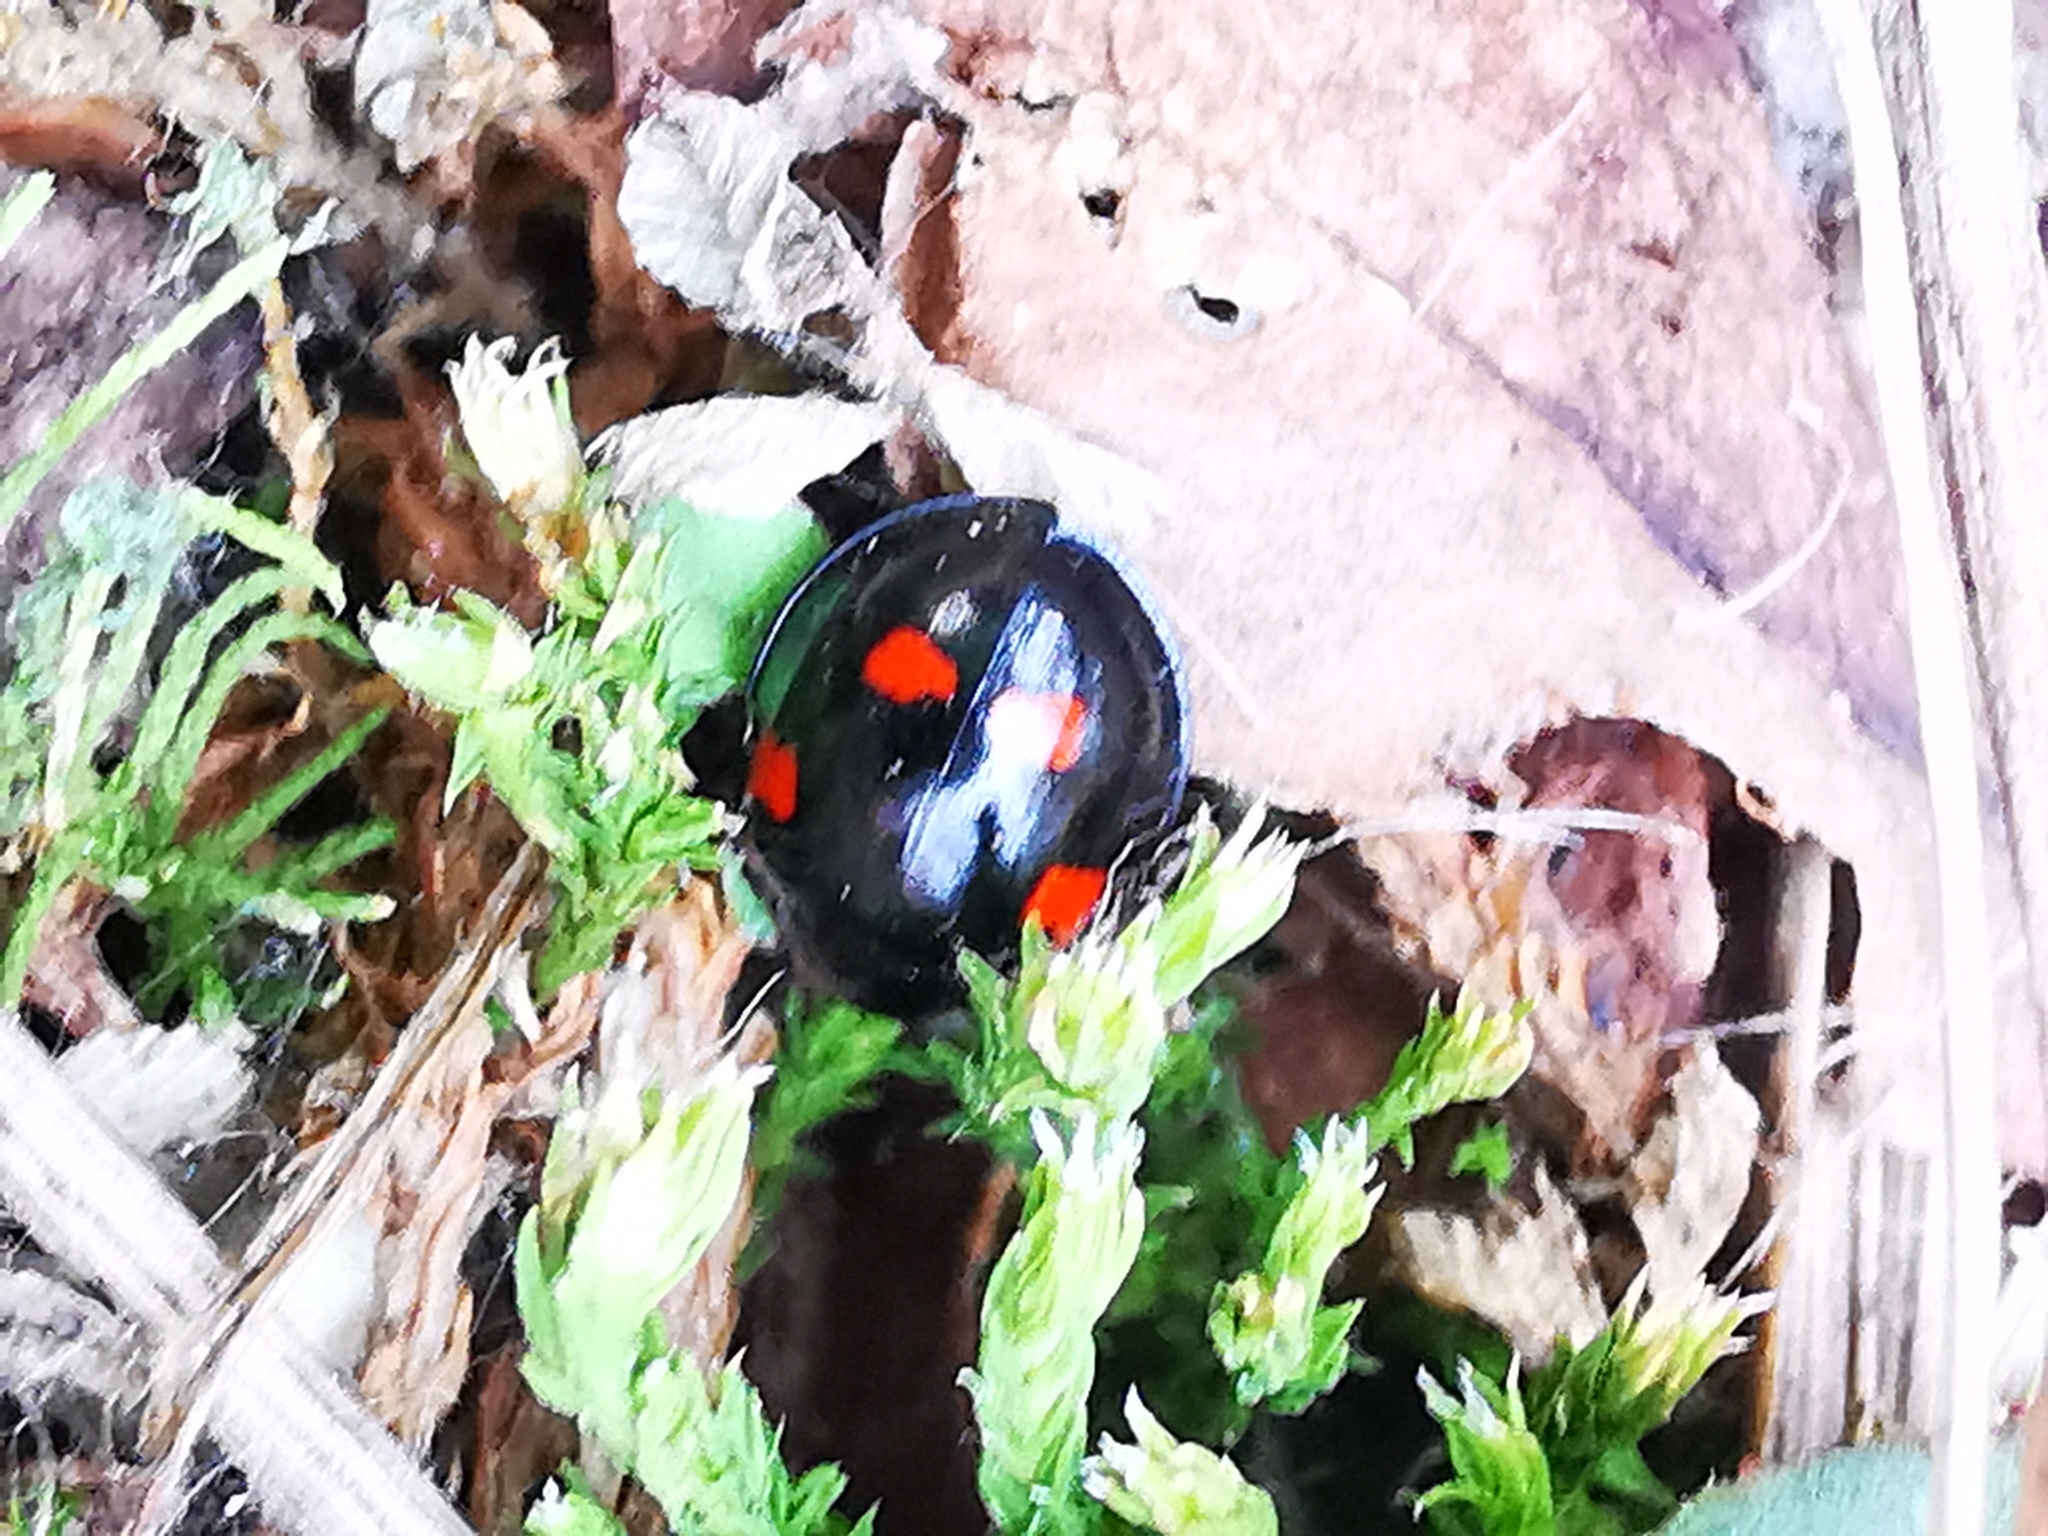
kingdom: Animalia
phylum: Arthropoda
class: Insecta
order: Coleoptera
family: Coccinellidae
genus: Brumus
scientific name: Brumus quadripustulatus
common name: Ladybird beetle
